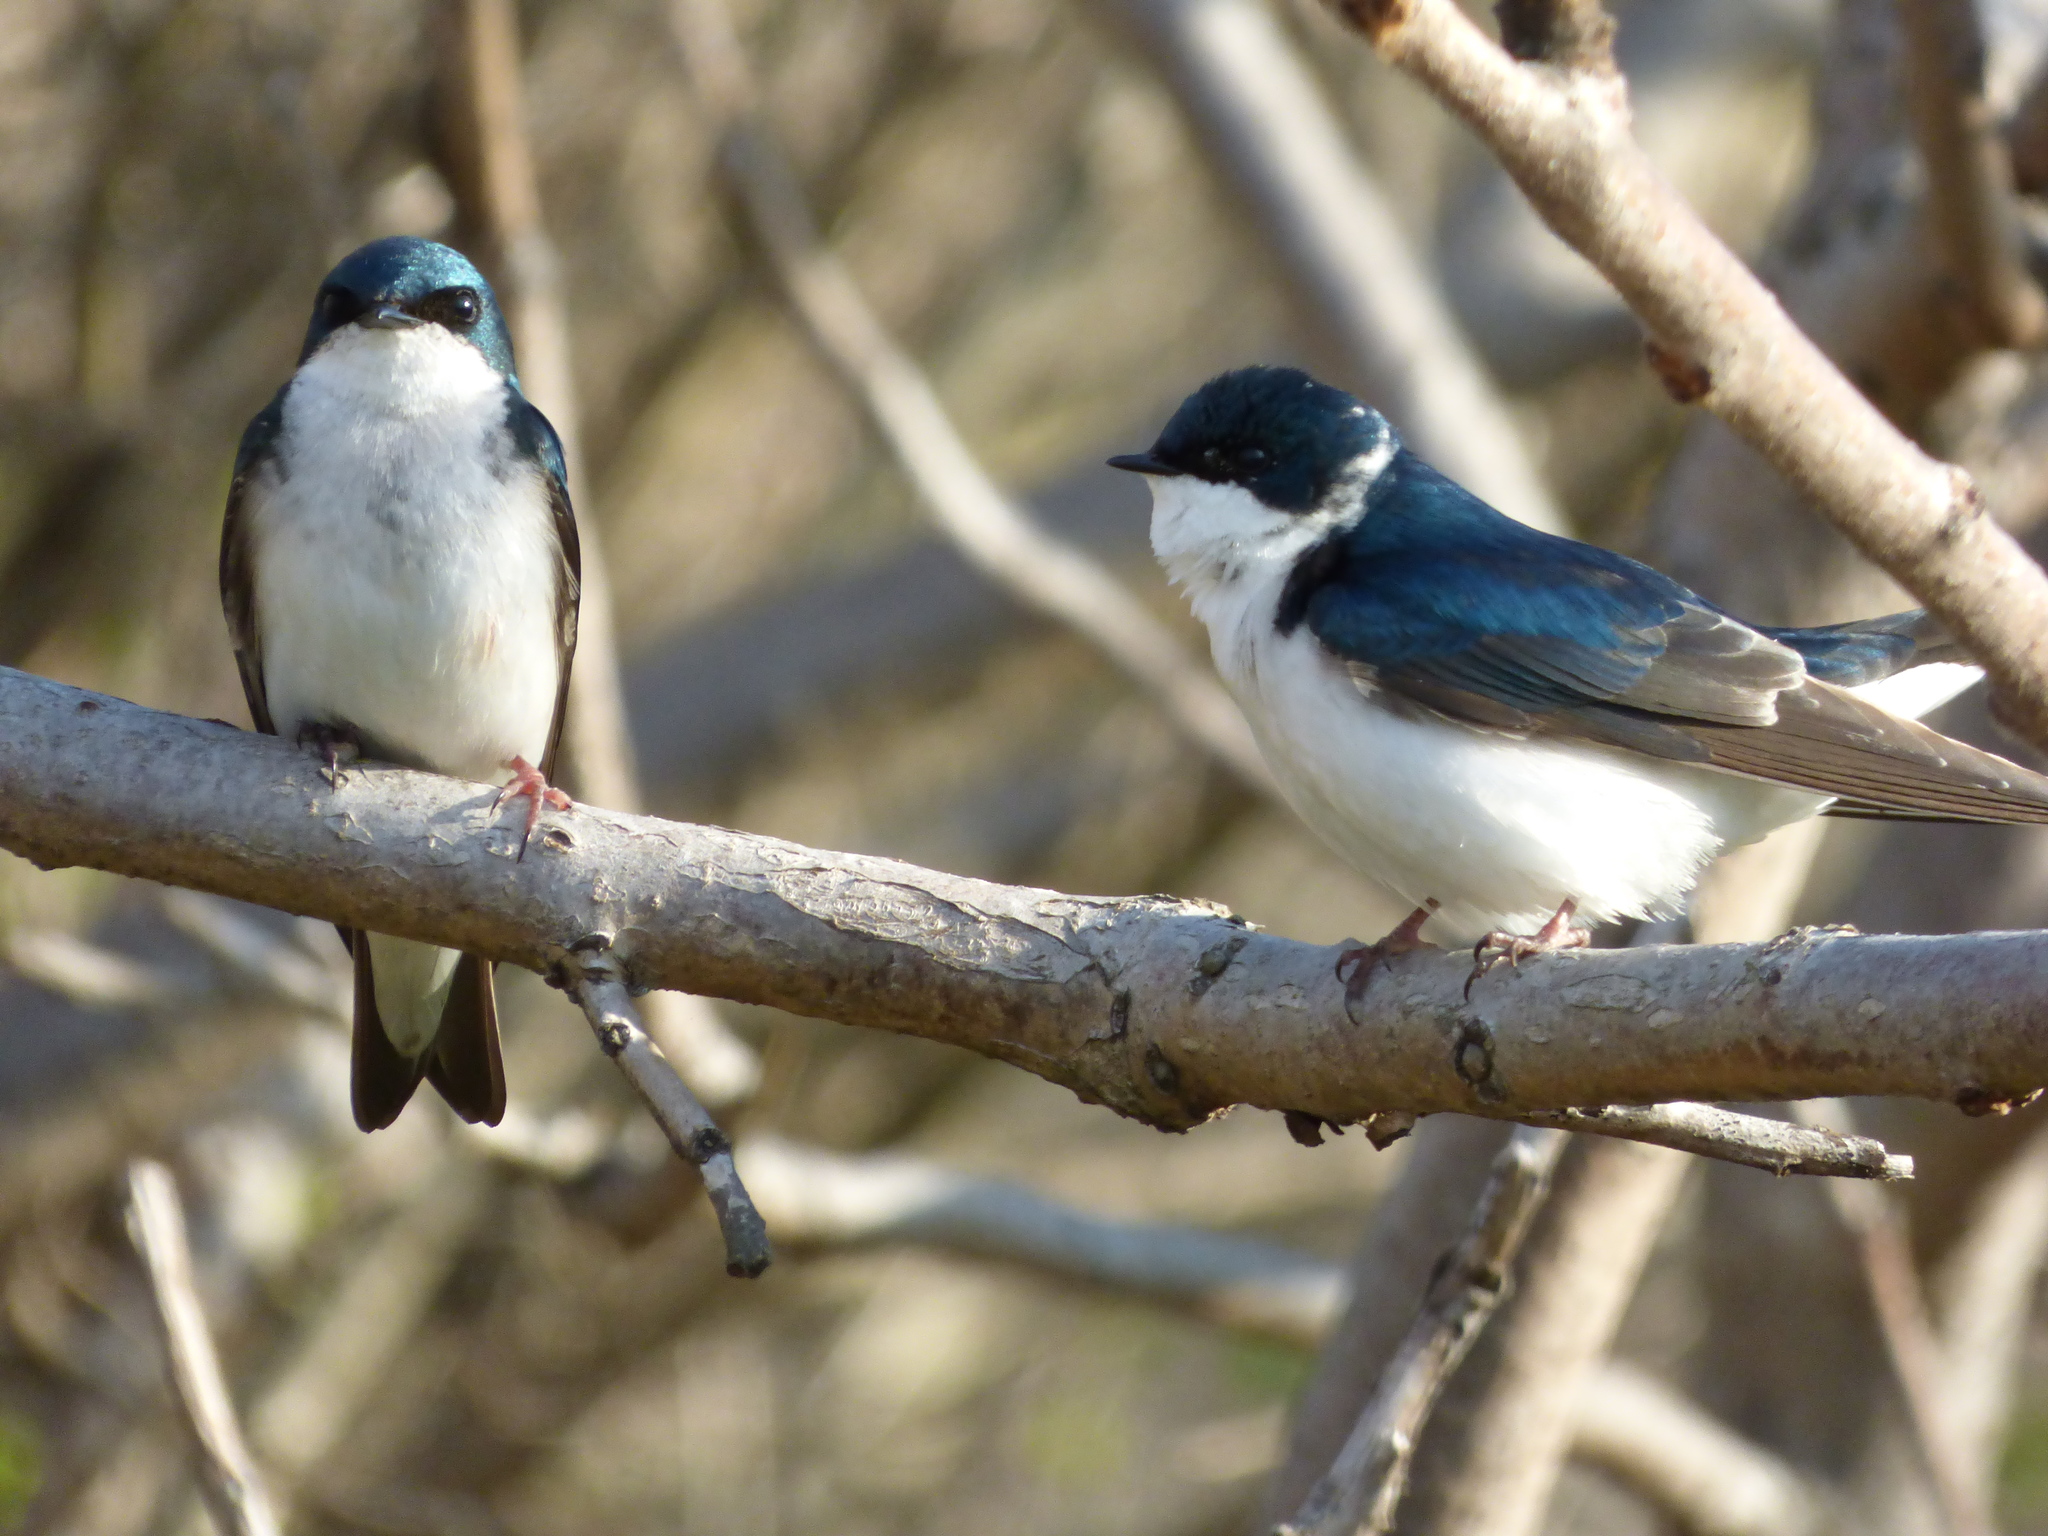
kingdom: Animalia
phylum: Chordata
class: Aves
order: Passeriformes
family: Hirundinidae
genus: Tachycineta
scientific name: Tachycineta bicolor
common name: Tree swallow
